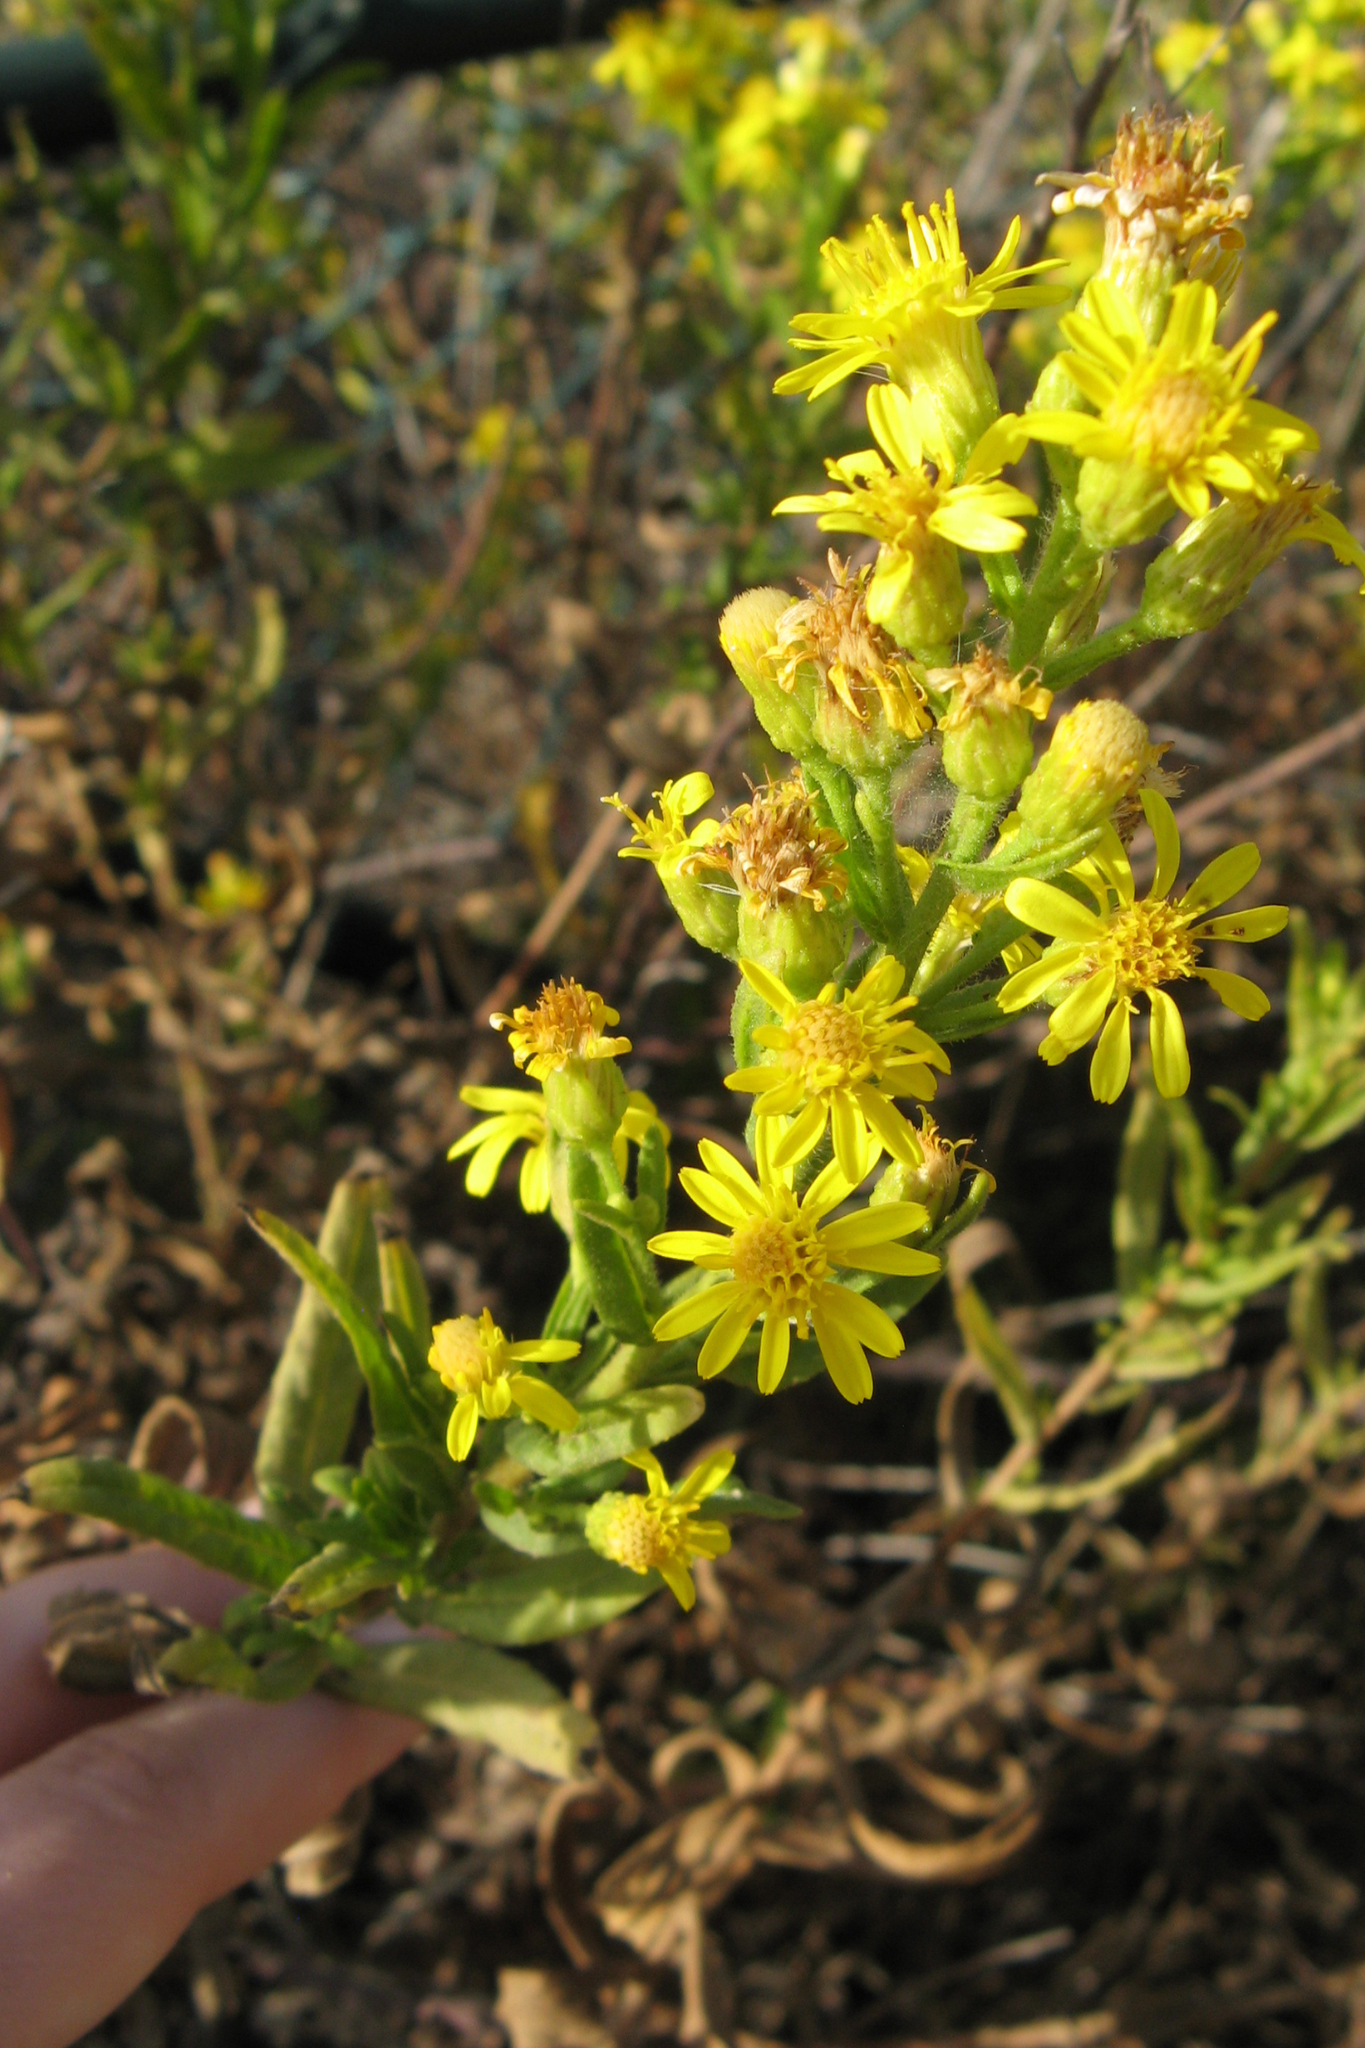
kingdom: Plantae
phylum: Tracheophyta
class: Magnoliopsida
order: Asterales
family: Asteraceae
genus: Dittrichia
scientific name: Dittrichia viscosa
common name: Woody fleabane
